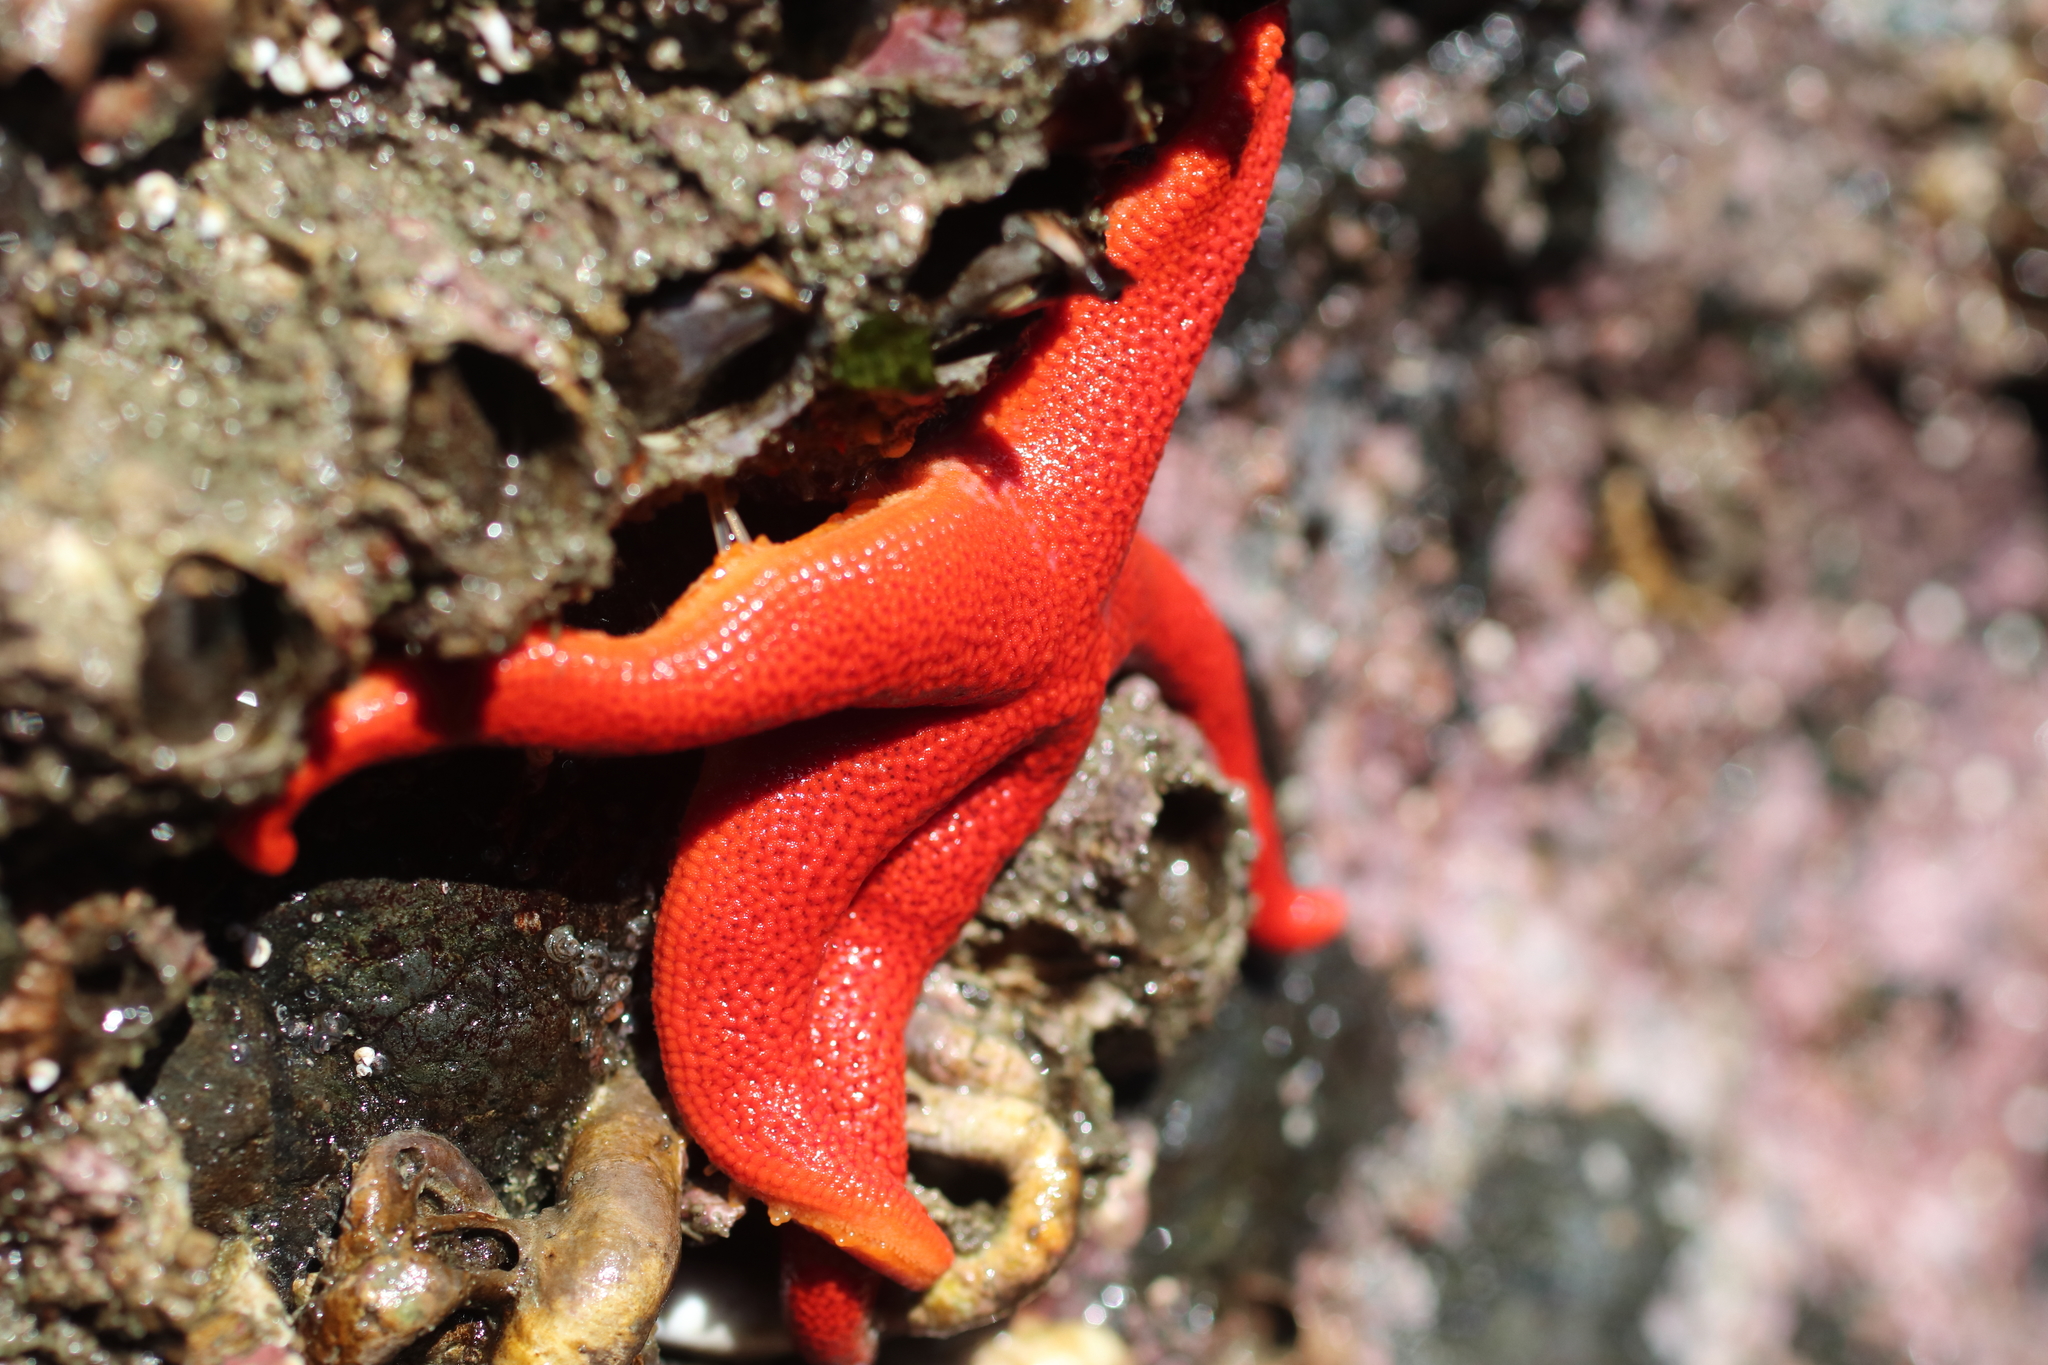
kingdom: Animalia
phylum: Echinodermata
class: Asteroidea
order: Spinulosida
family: Echinasteridae
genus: Henricia
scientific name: Henricia leviuscula
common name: Pacific blood star
